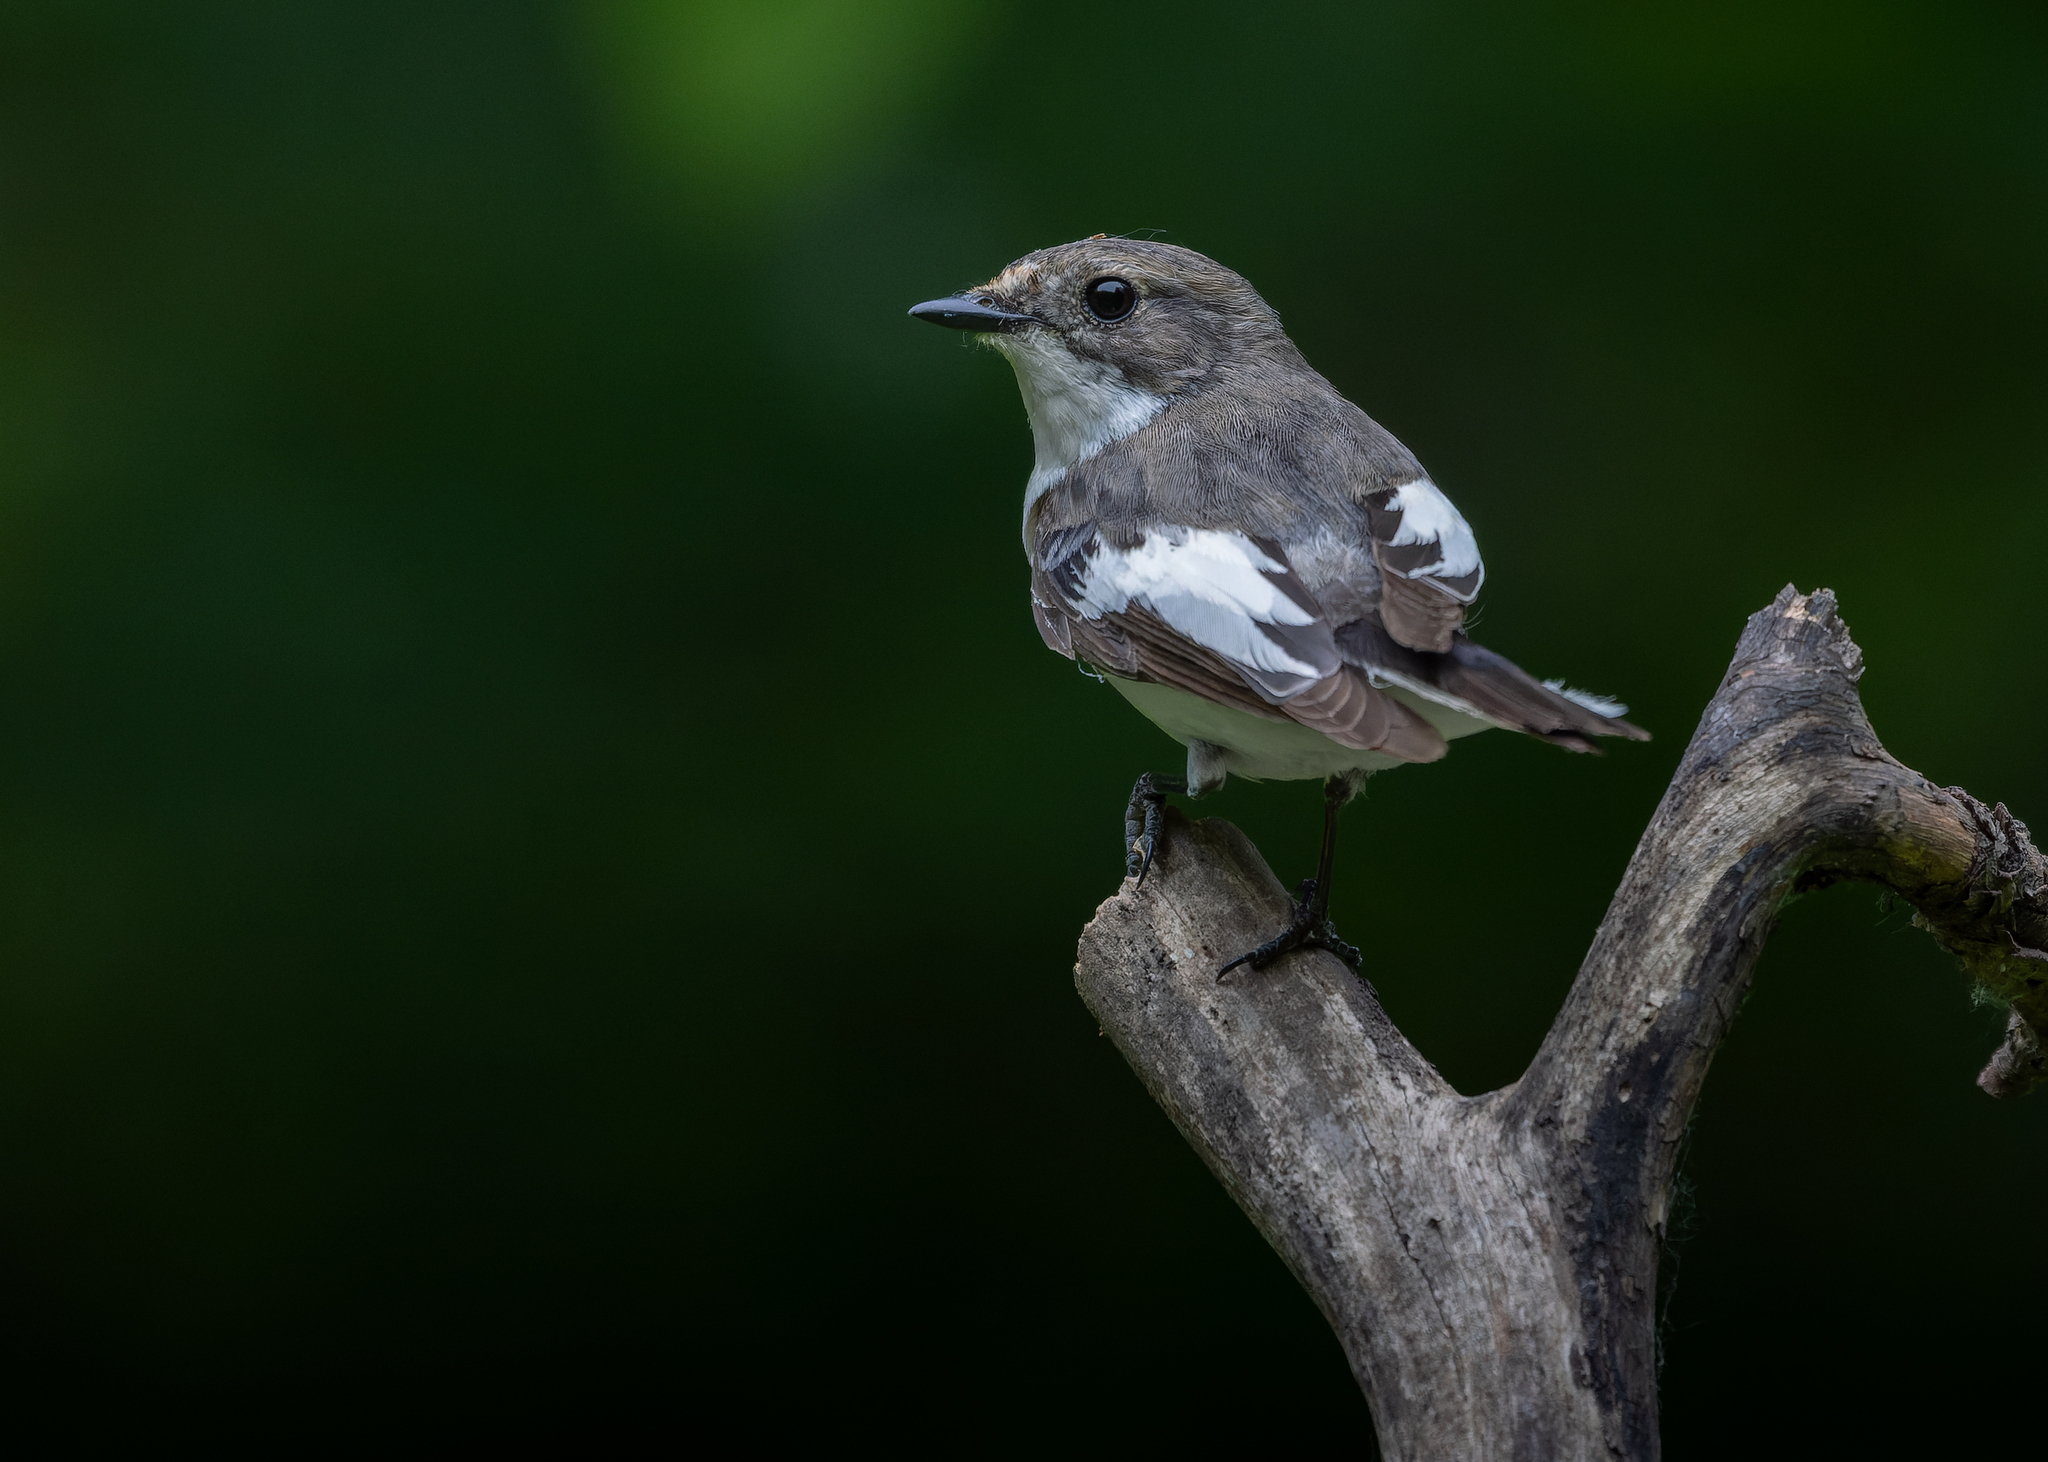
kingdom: Animalia
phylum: Chordata
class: Aves
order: Passeriformes
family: Muscicapidae
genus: Ficedula
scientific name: Ficedula hypoleuca
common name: European pied flycatcher
